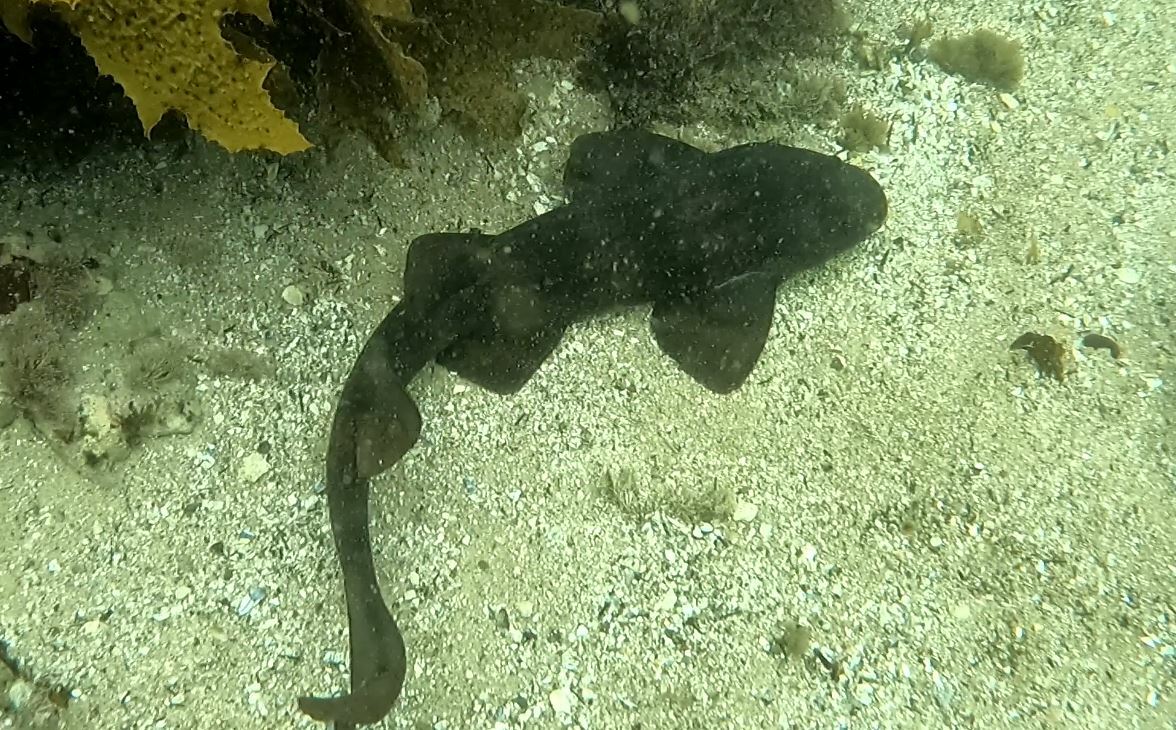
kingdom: Animalia
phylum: Chordata
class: Elasmobranchii
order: Orectolobiformes
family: Brachaeluridae
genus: Brachaelurus
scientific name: Brachaelurus waddi
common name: Blind shark
